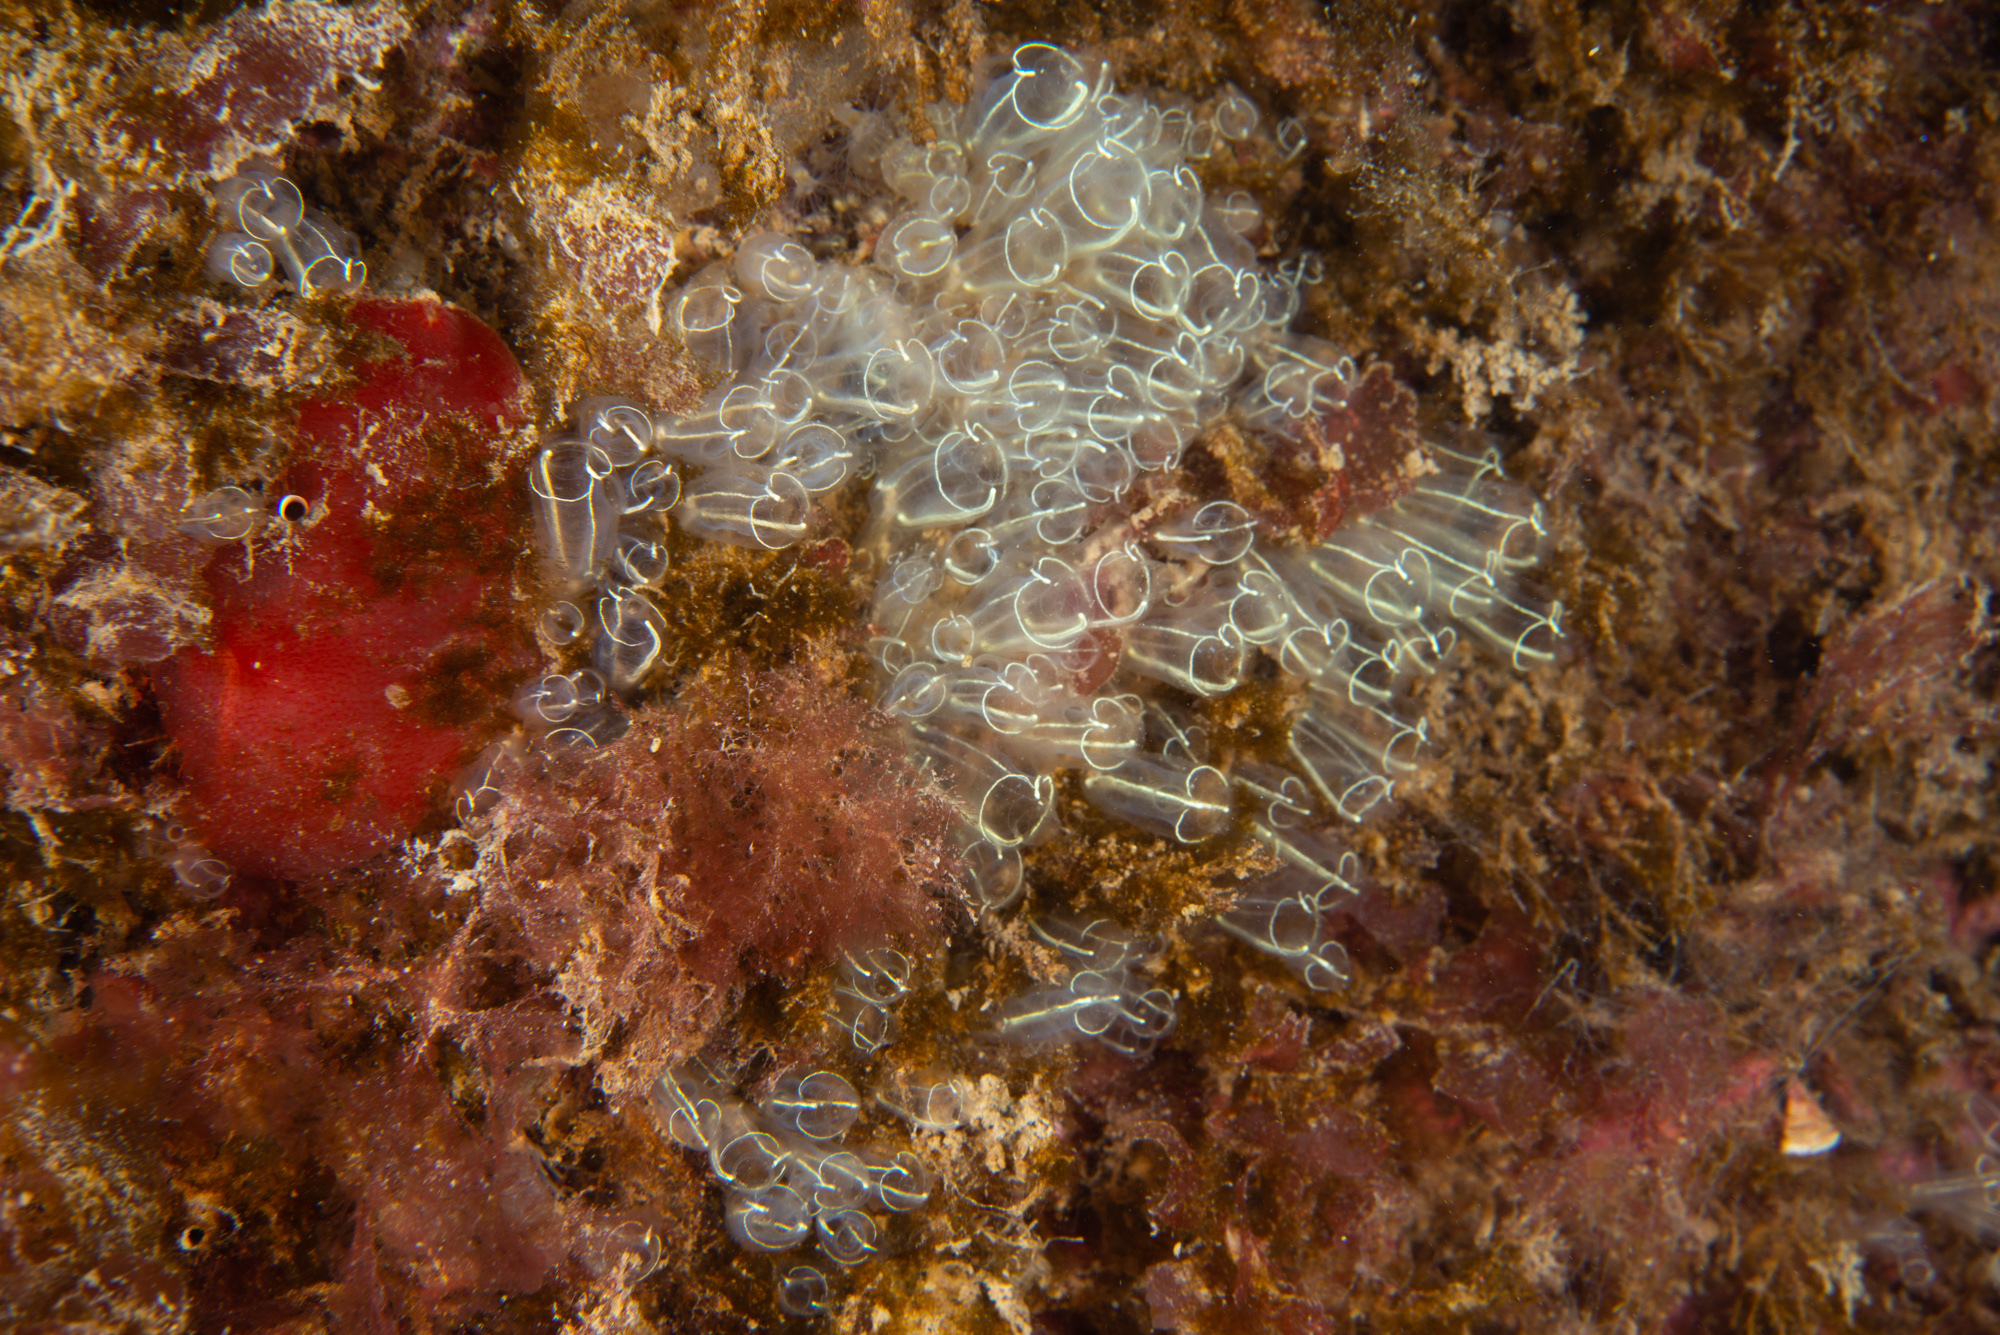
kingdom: Animalia
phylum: Chordata
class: Ascidiacea
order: Aplousobranchia
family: Clavelinidae
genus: Clavelina
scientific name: Clavelina lepadiformis
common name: Light bulb tunicate
